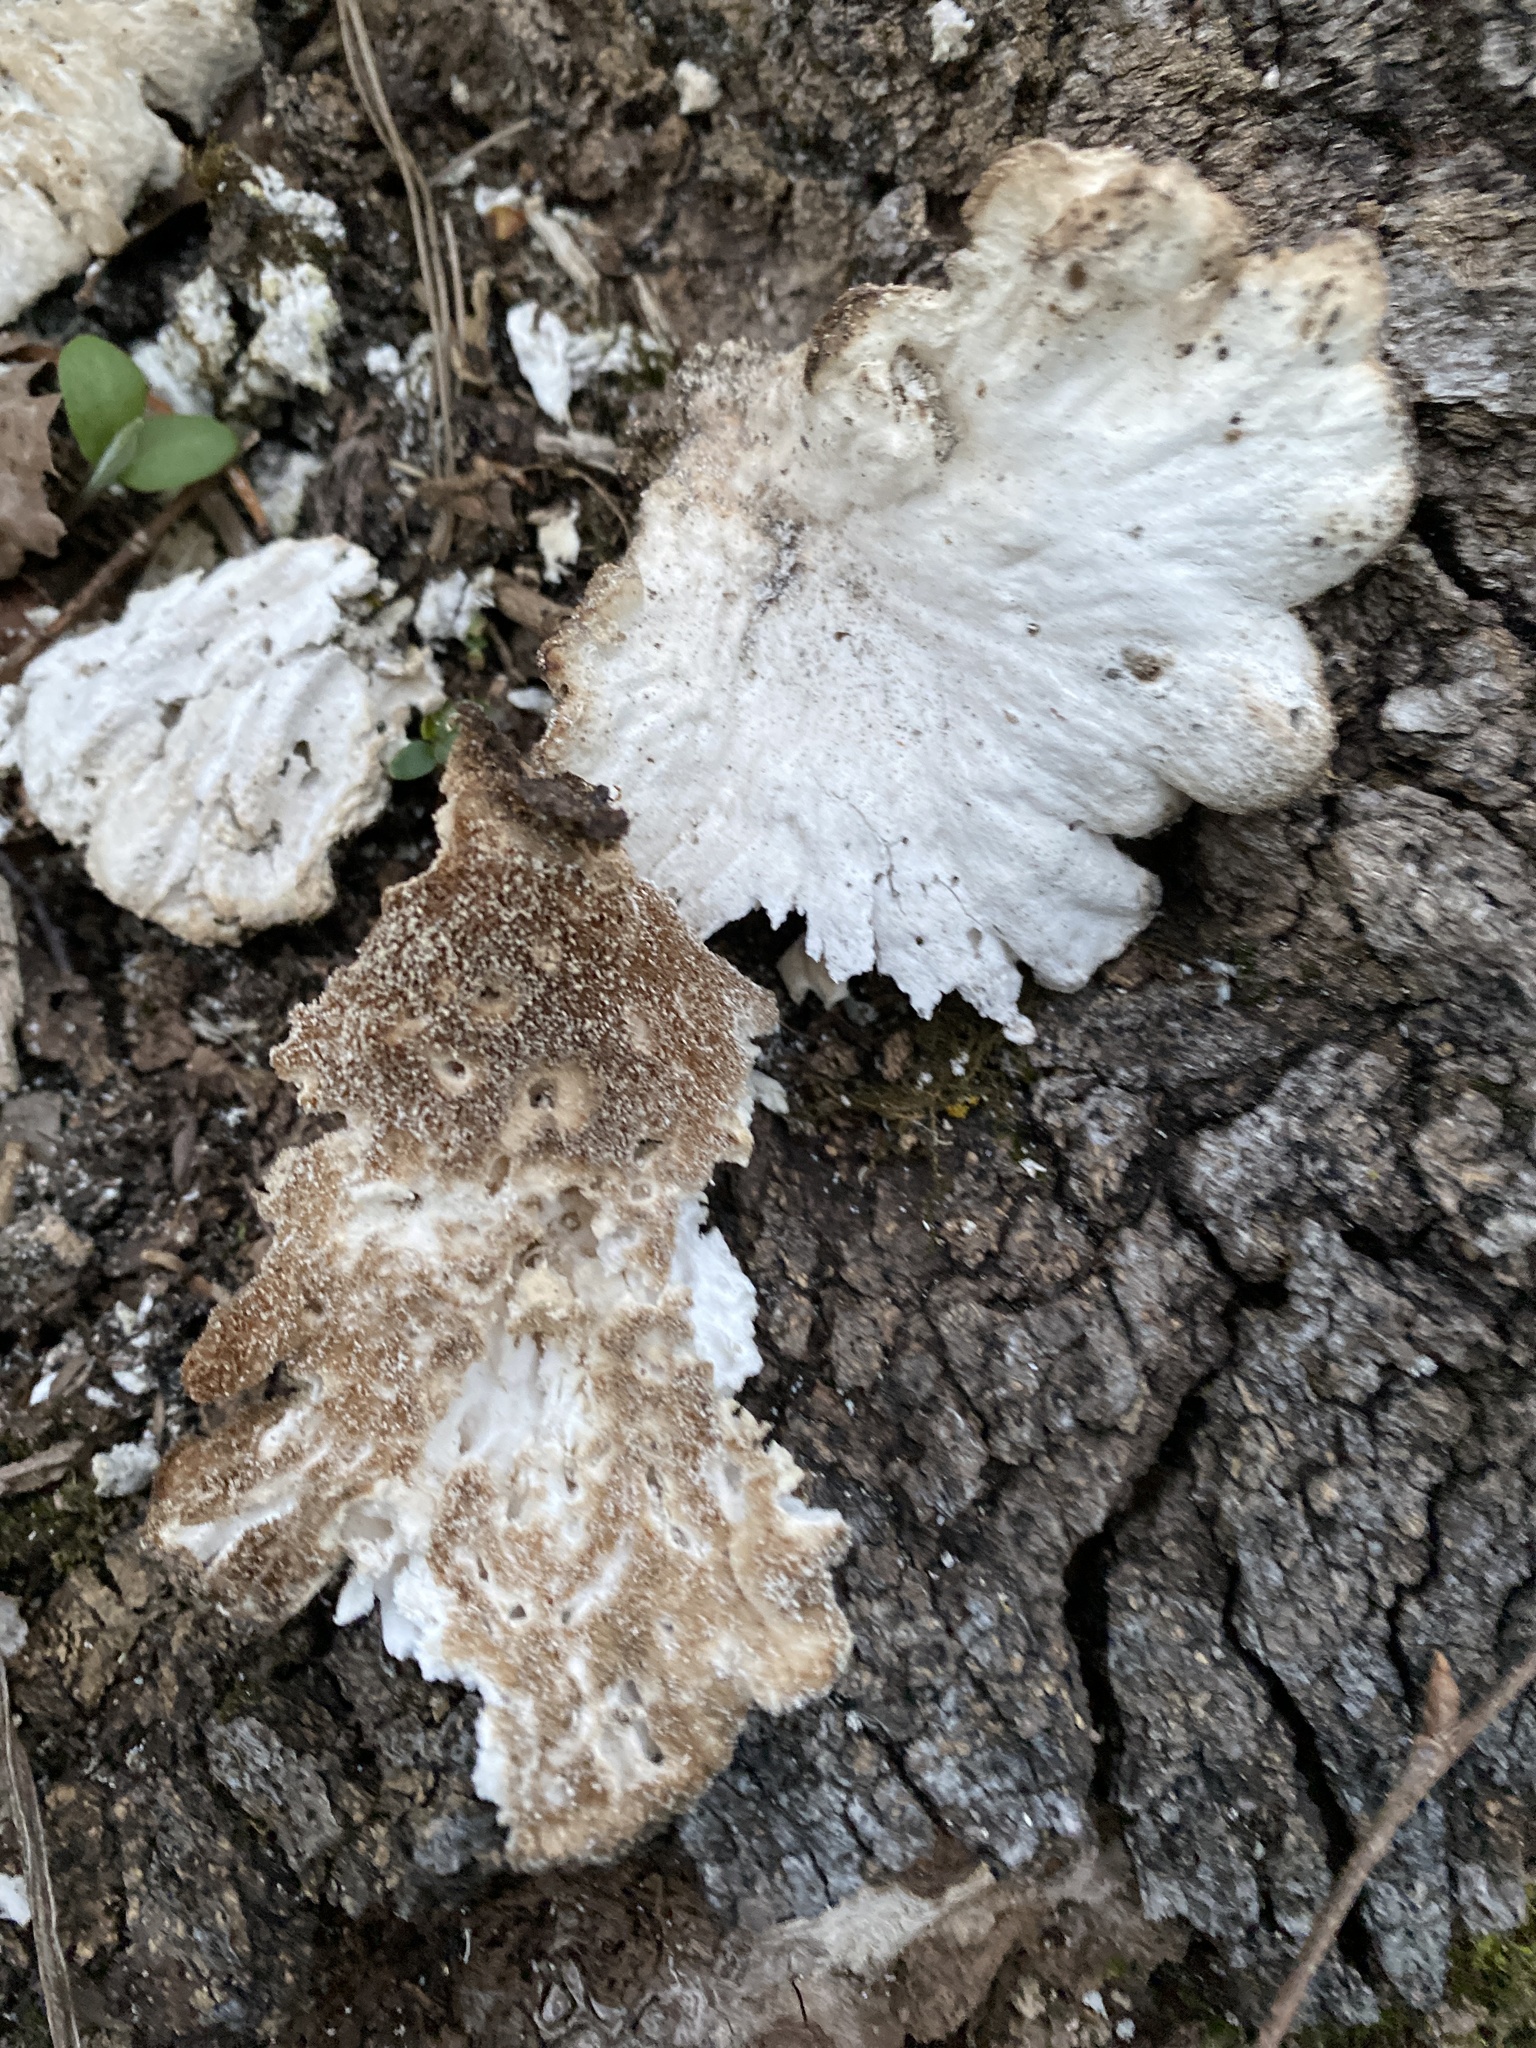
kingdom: Fungi
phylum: Basidiomycota
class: Agaricomycetes
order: Polyporales
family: Laetiporaceae
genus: Laetiporus
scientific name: Laetiporus sulphureus
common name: Chicken of the woods
